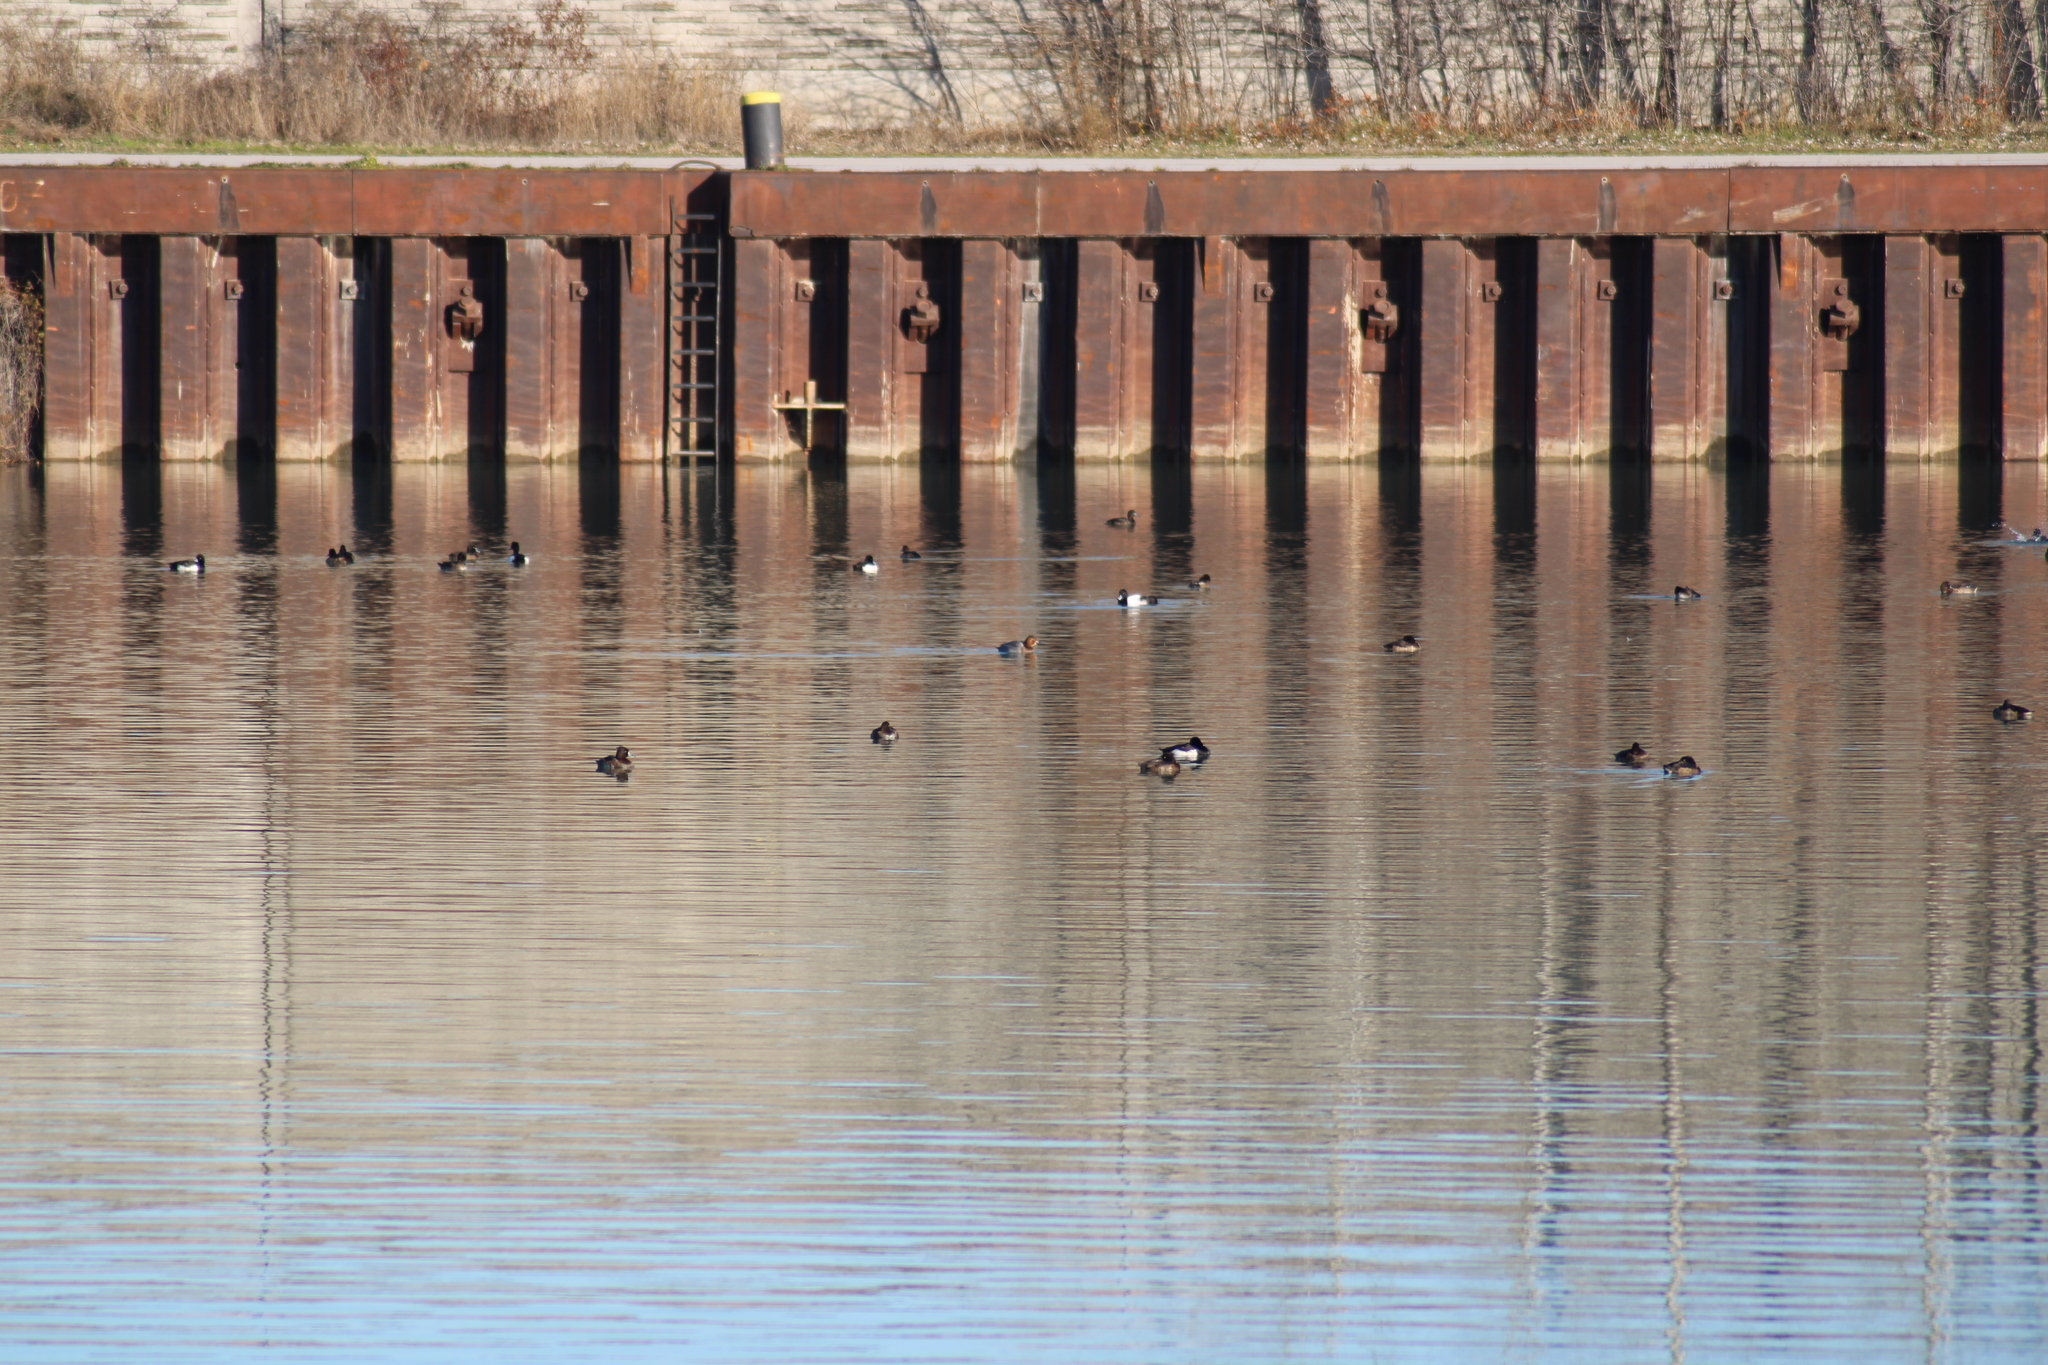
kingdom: Animalia
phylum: Chordata
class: Aves
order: Anseriformes
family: Anatidae
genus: Aythya
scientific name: Aythya fuligula
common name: Tufted duck
